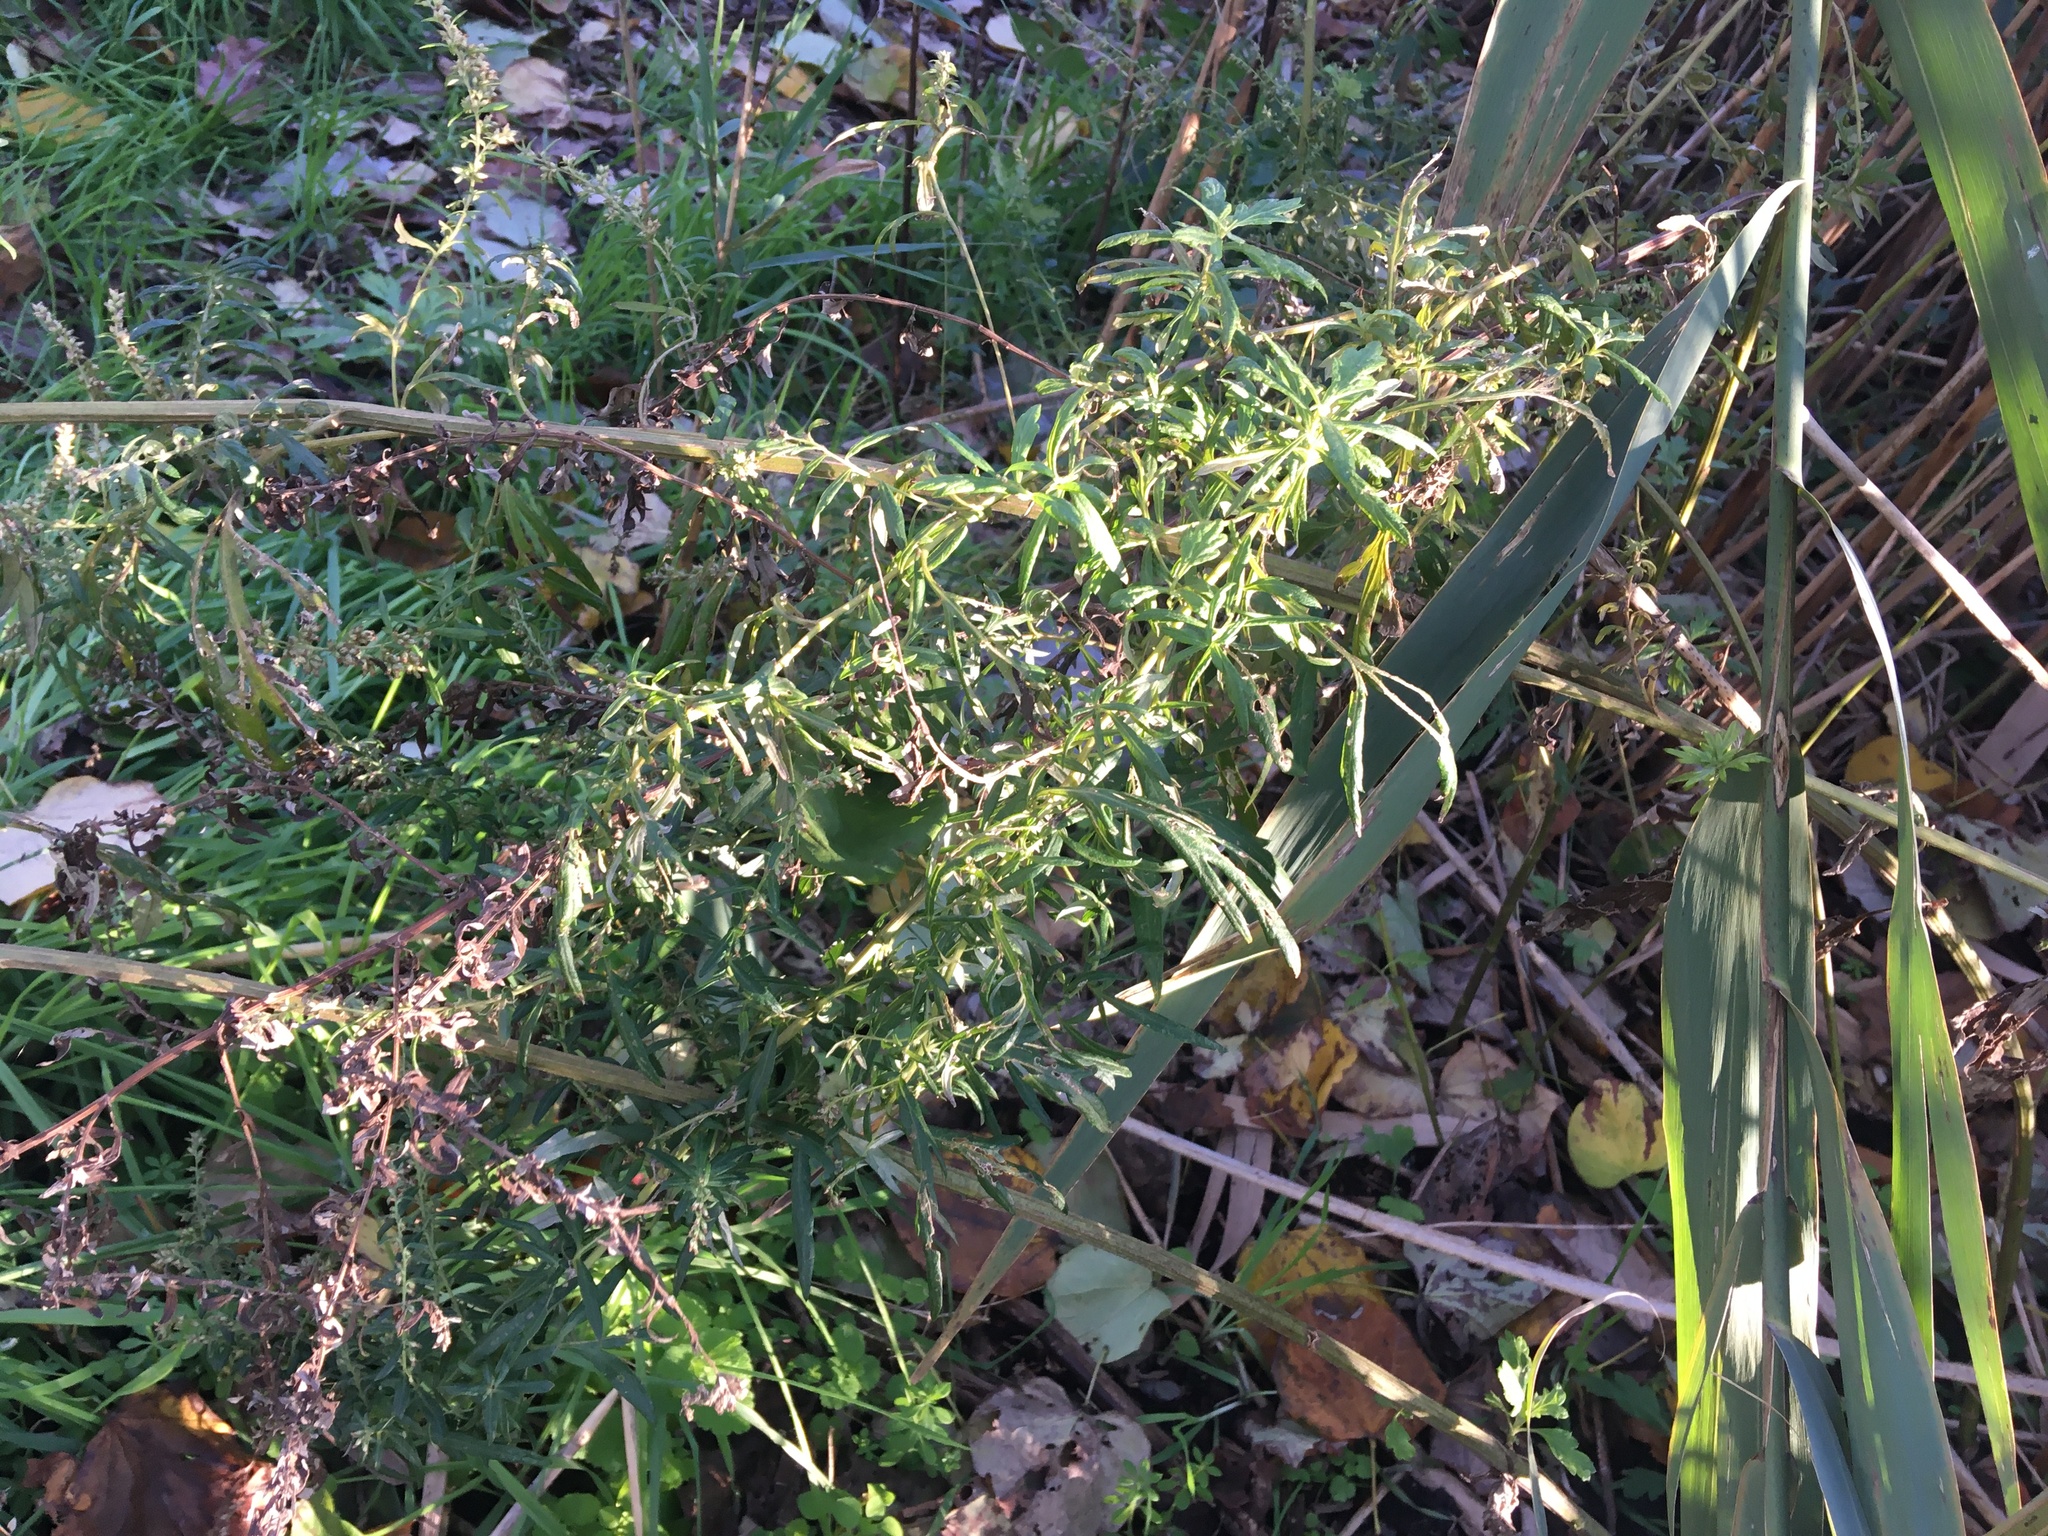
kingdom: Plantae
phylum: Tracheophyta
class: Magnoliopsida
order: Asterales
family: Asteraceae
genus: Artemisia
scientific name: Artemisia vulgaris
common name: Mugwort
